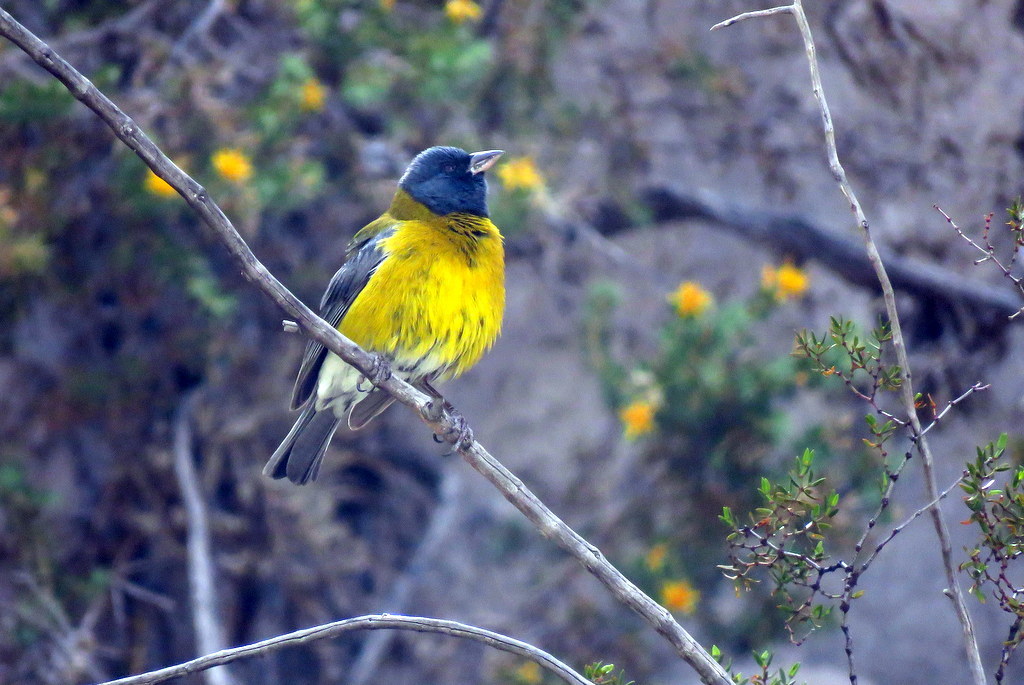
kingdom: Animalia
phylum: Chordata
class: Aves
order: Passeriformes
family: Thraupidae
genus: Phrygilus
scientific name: Phrygilus gayi
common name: Grey-hooded sierra finch
